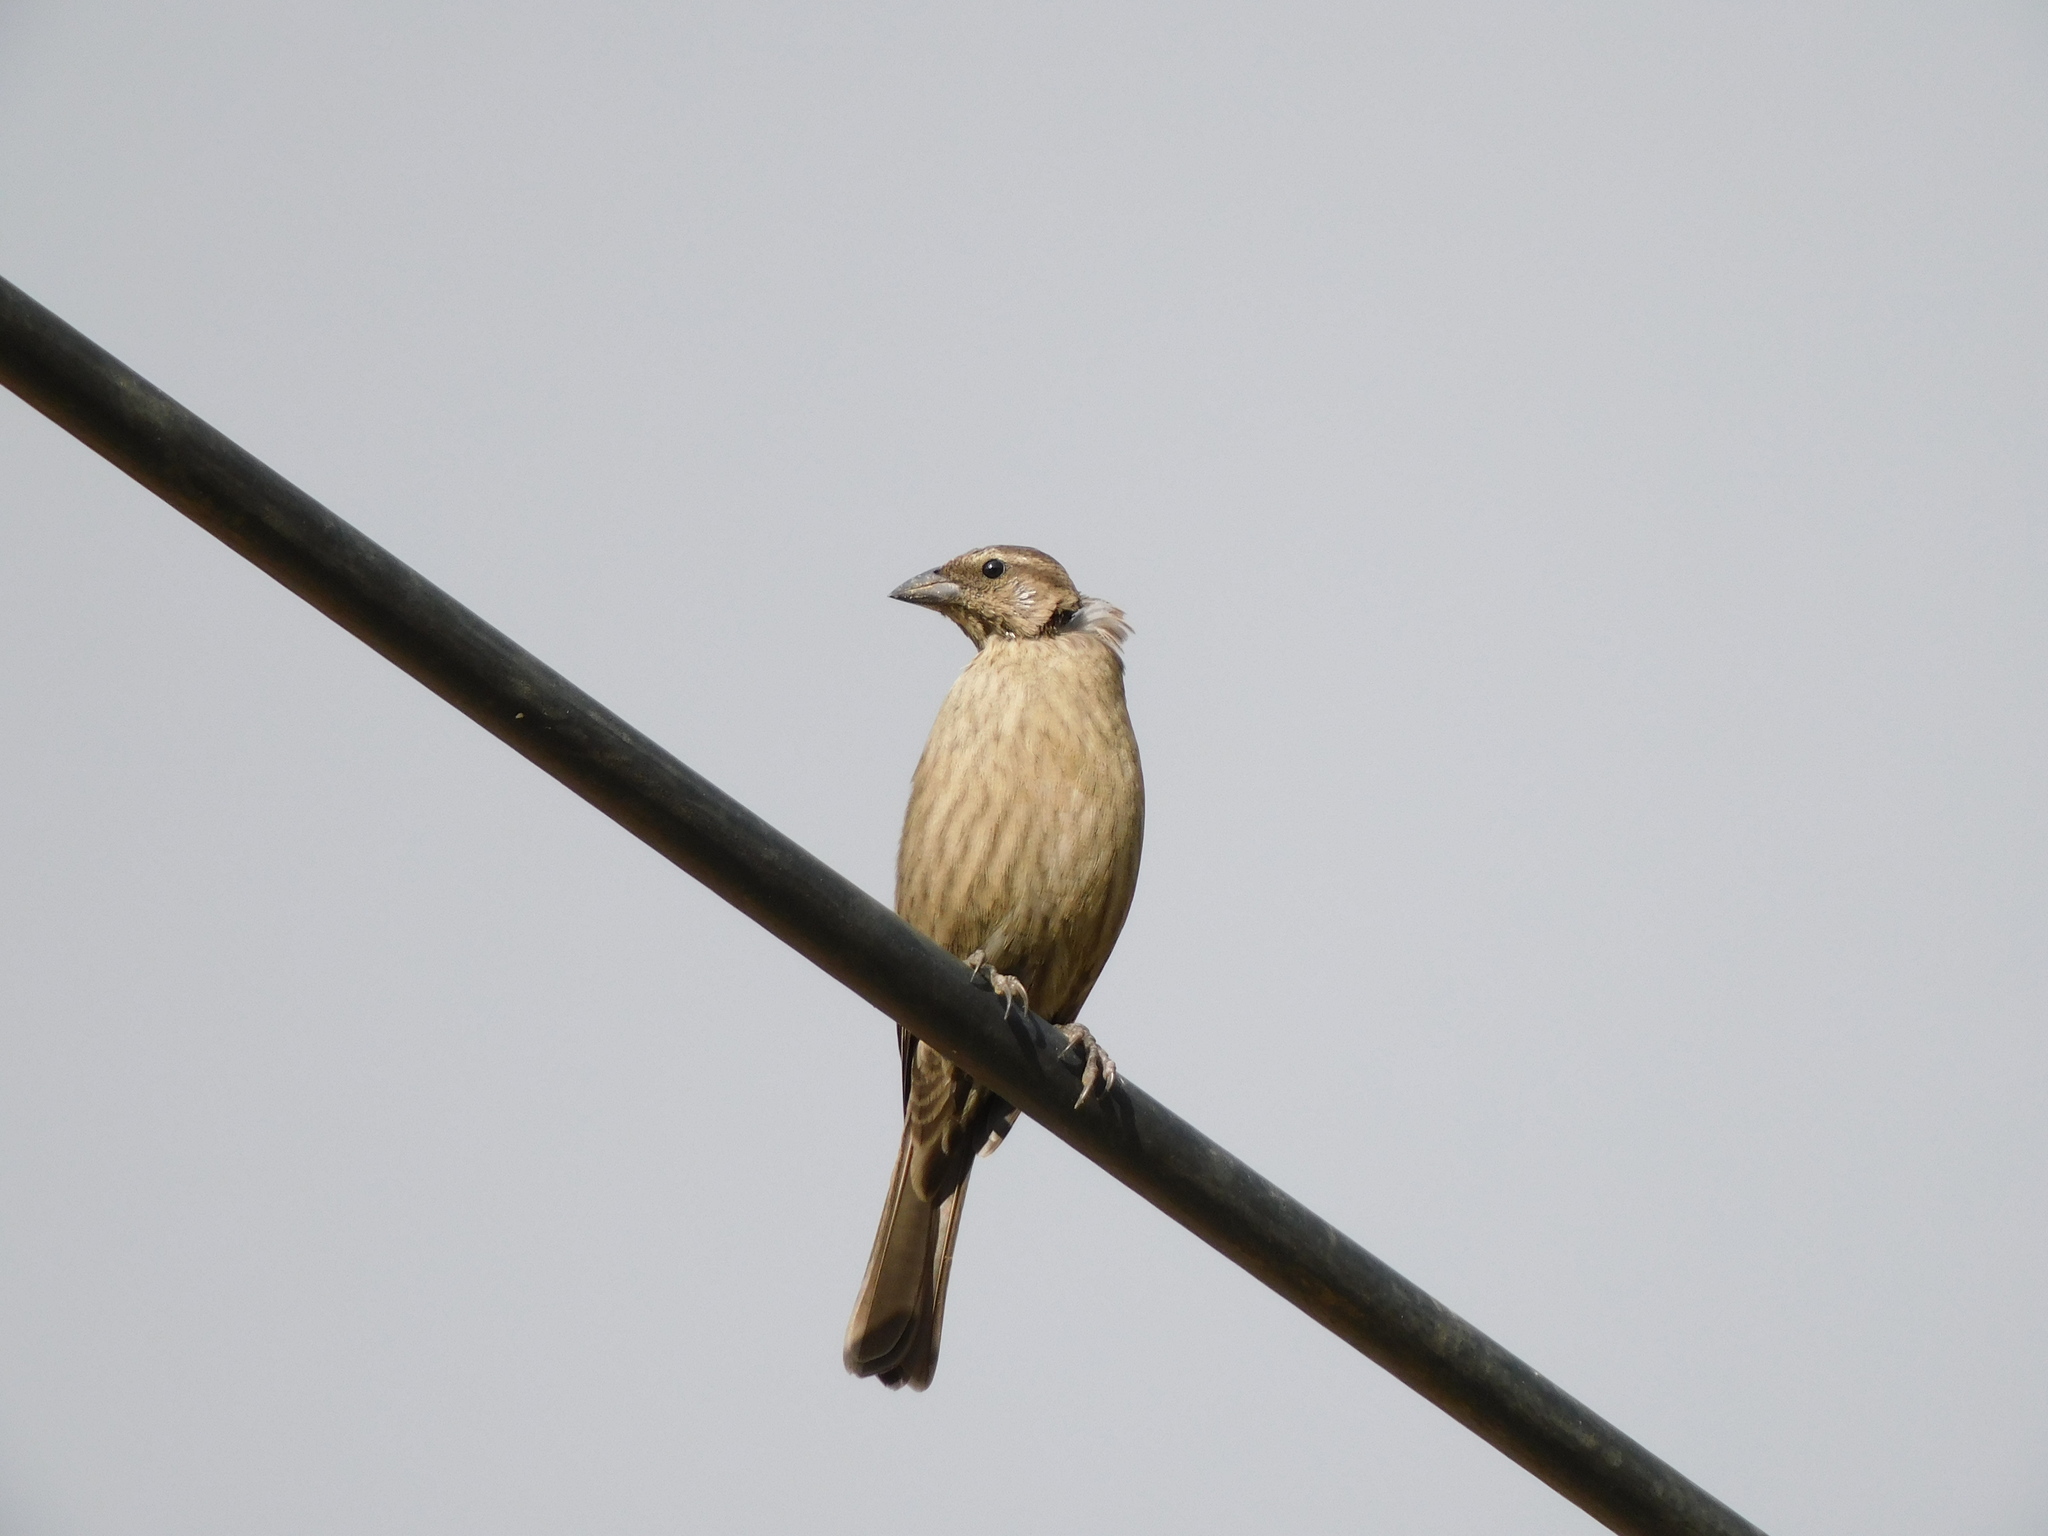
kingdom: Animalia
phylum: Chordata
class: Aves
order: Passeriformes
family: Icteridae
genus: Molothrus
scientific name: Molothrus bonariensis
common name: Shiny cowbird
